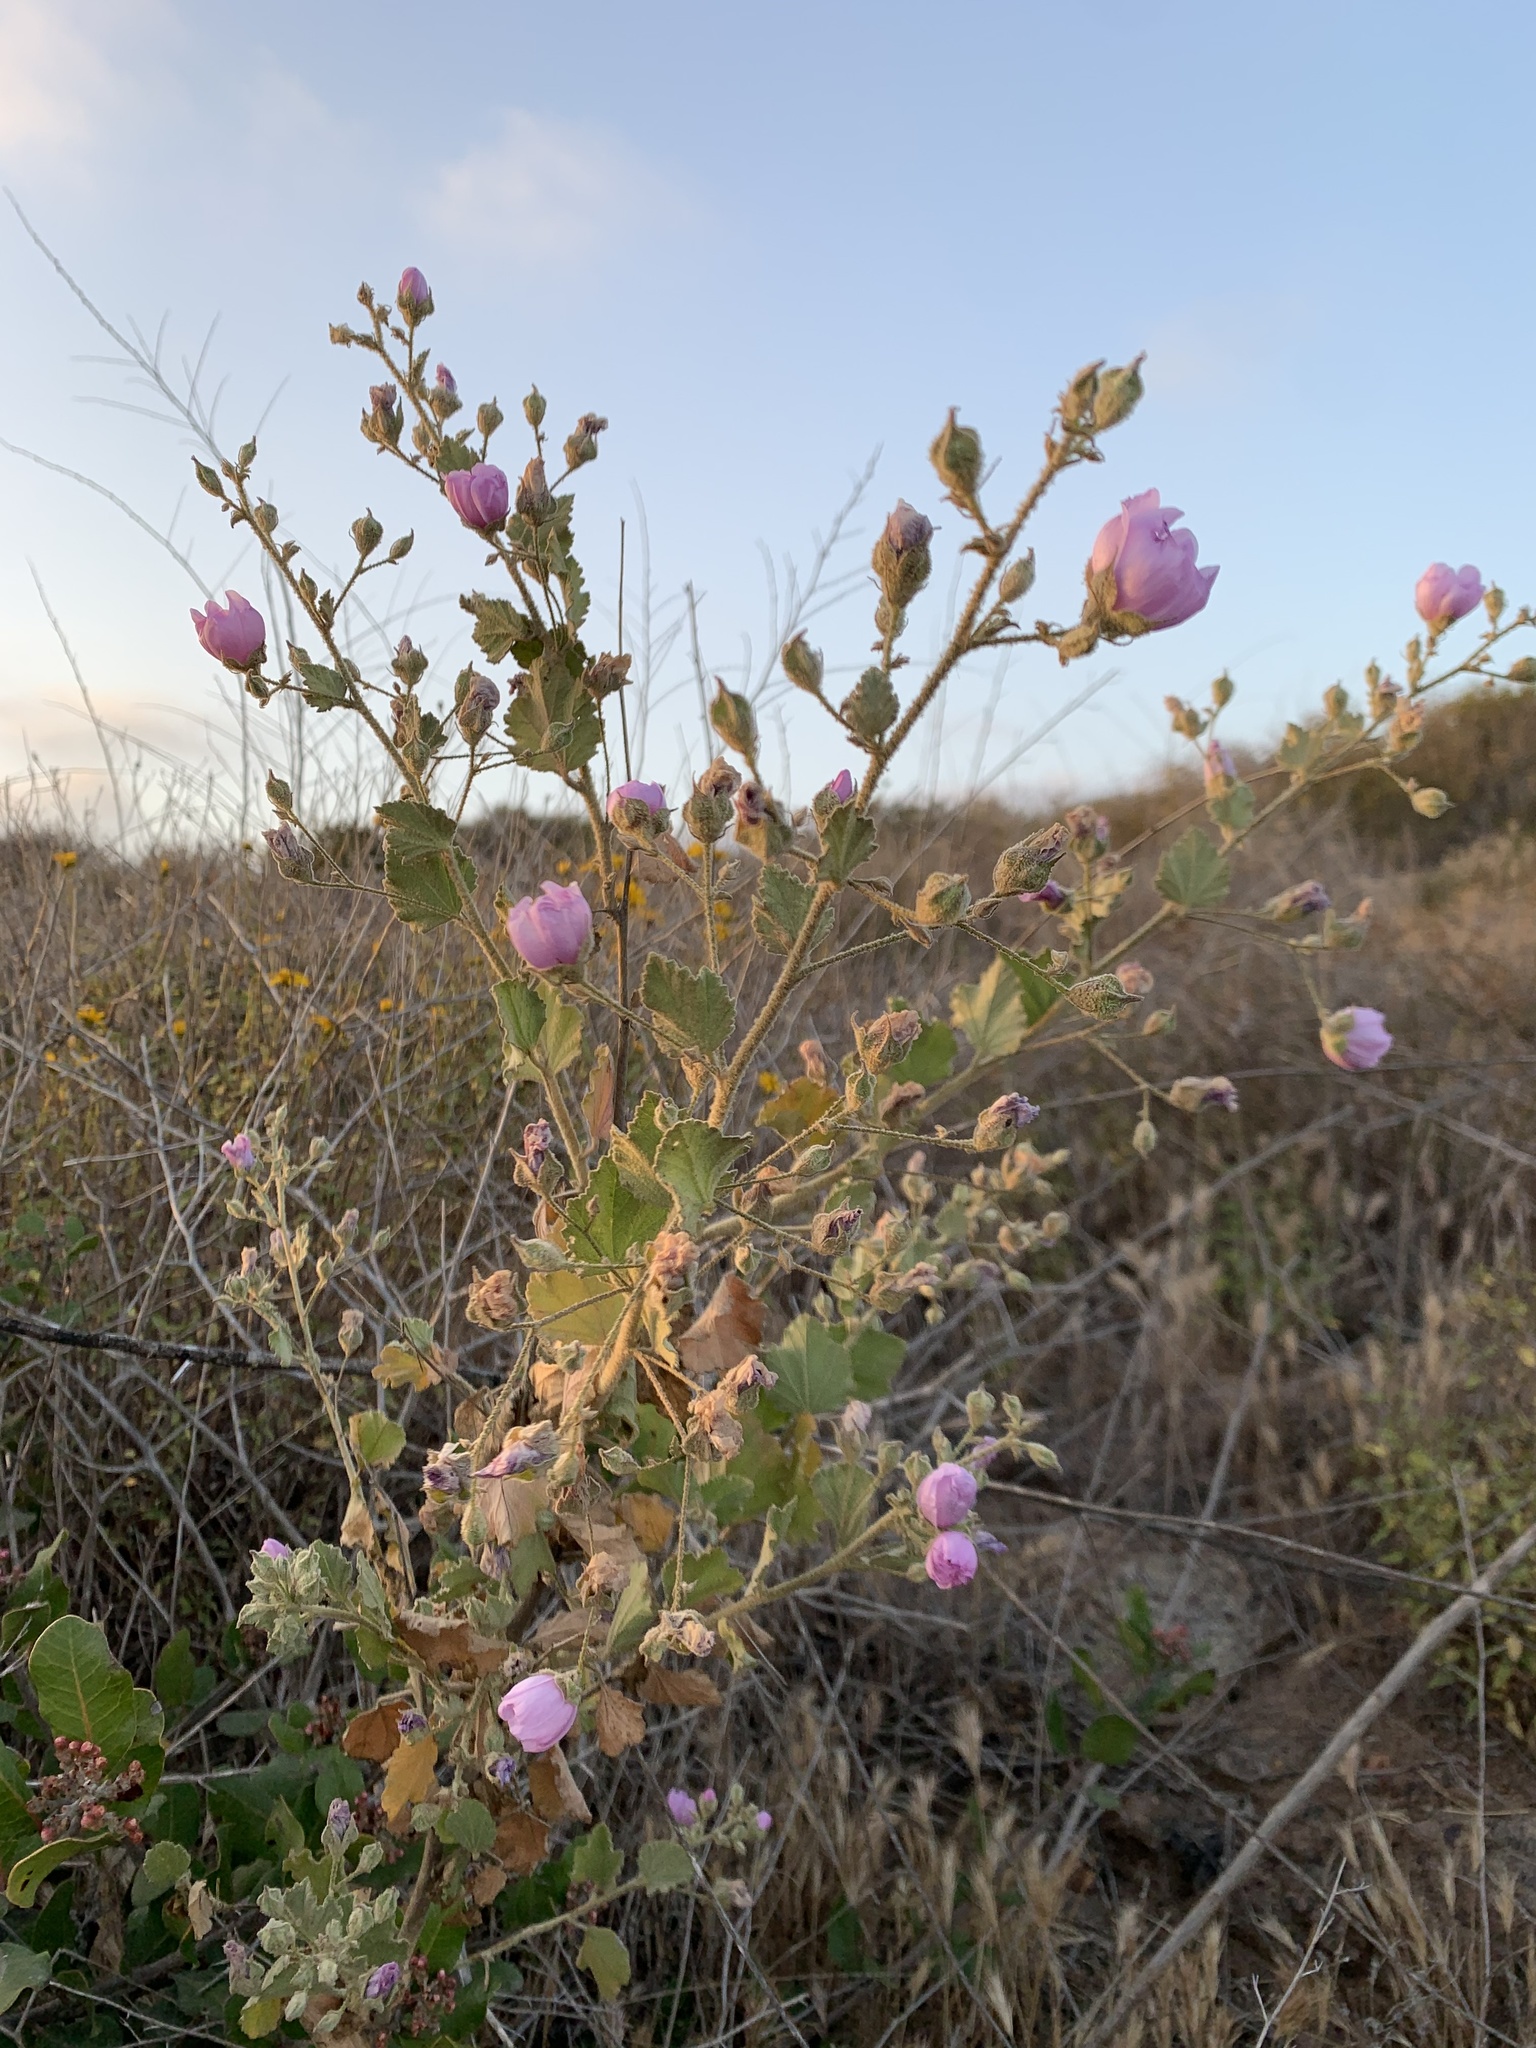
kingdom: Plantae
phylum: Tracheophyta
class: Magnoliopsida
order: Malvales
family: Malvaceae
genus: Malacothamnus
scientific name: Malacothamnus foliosus
